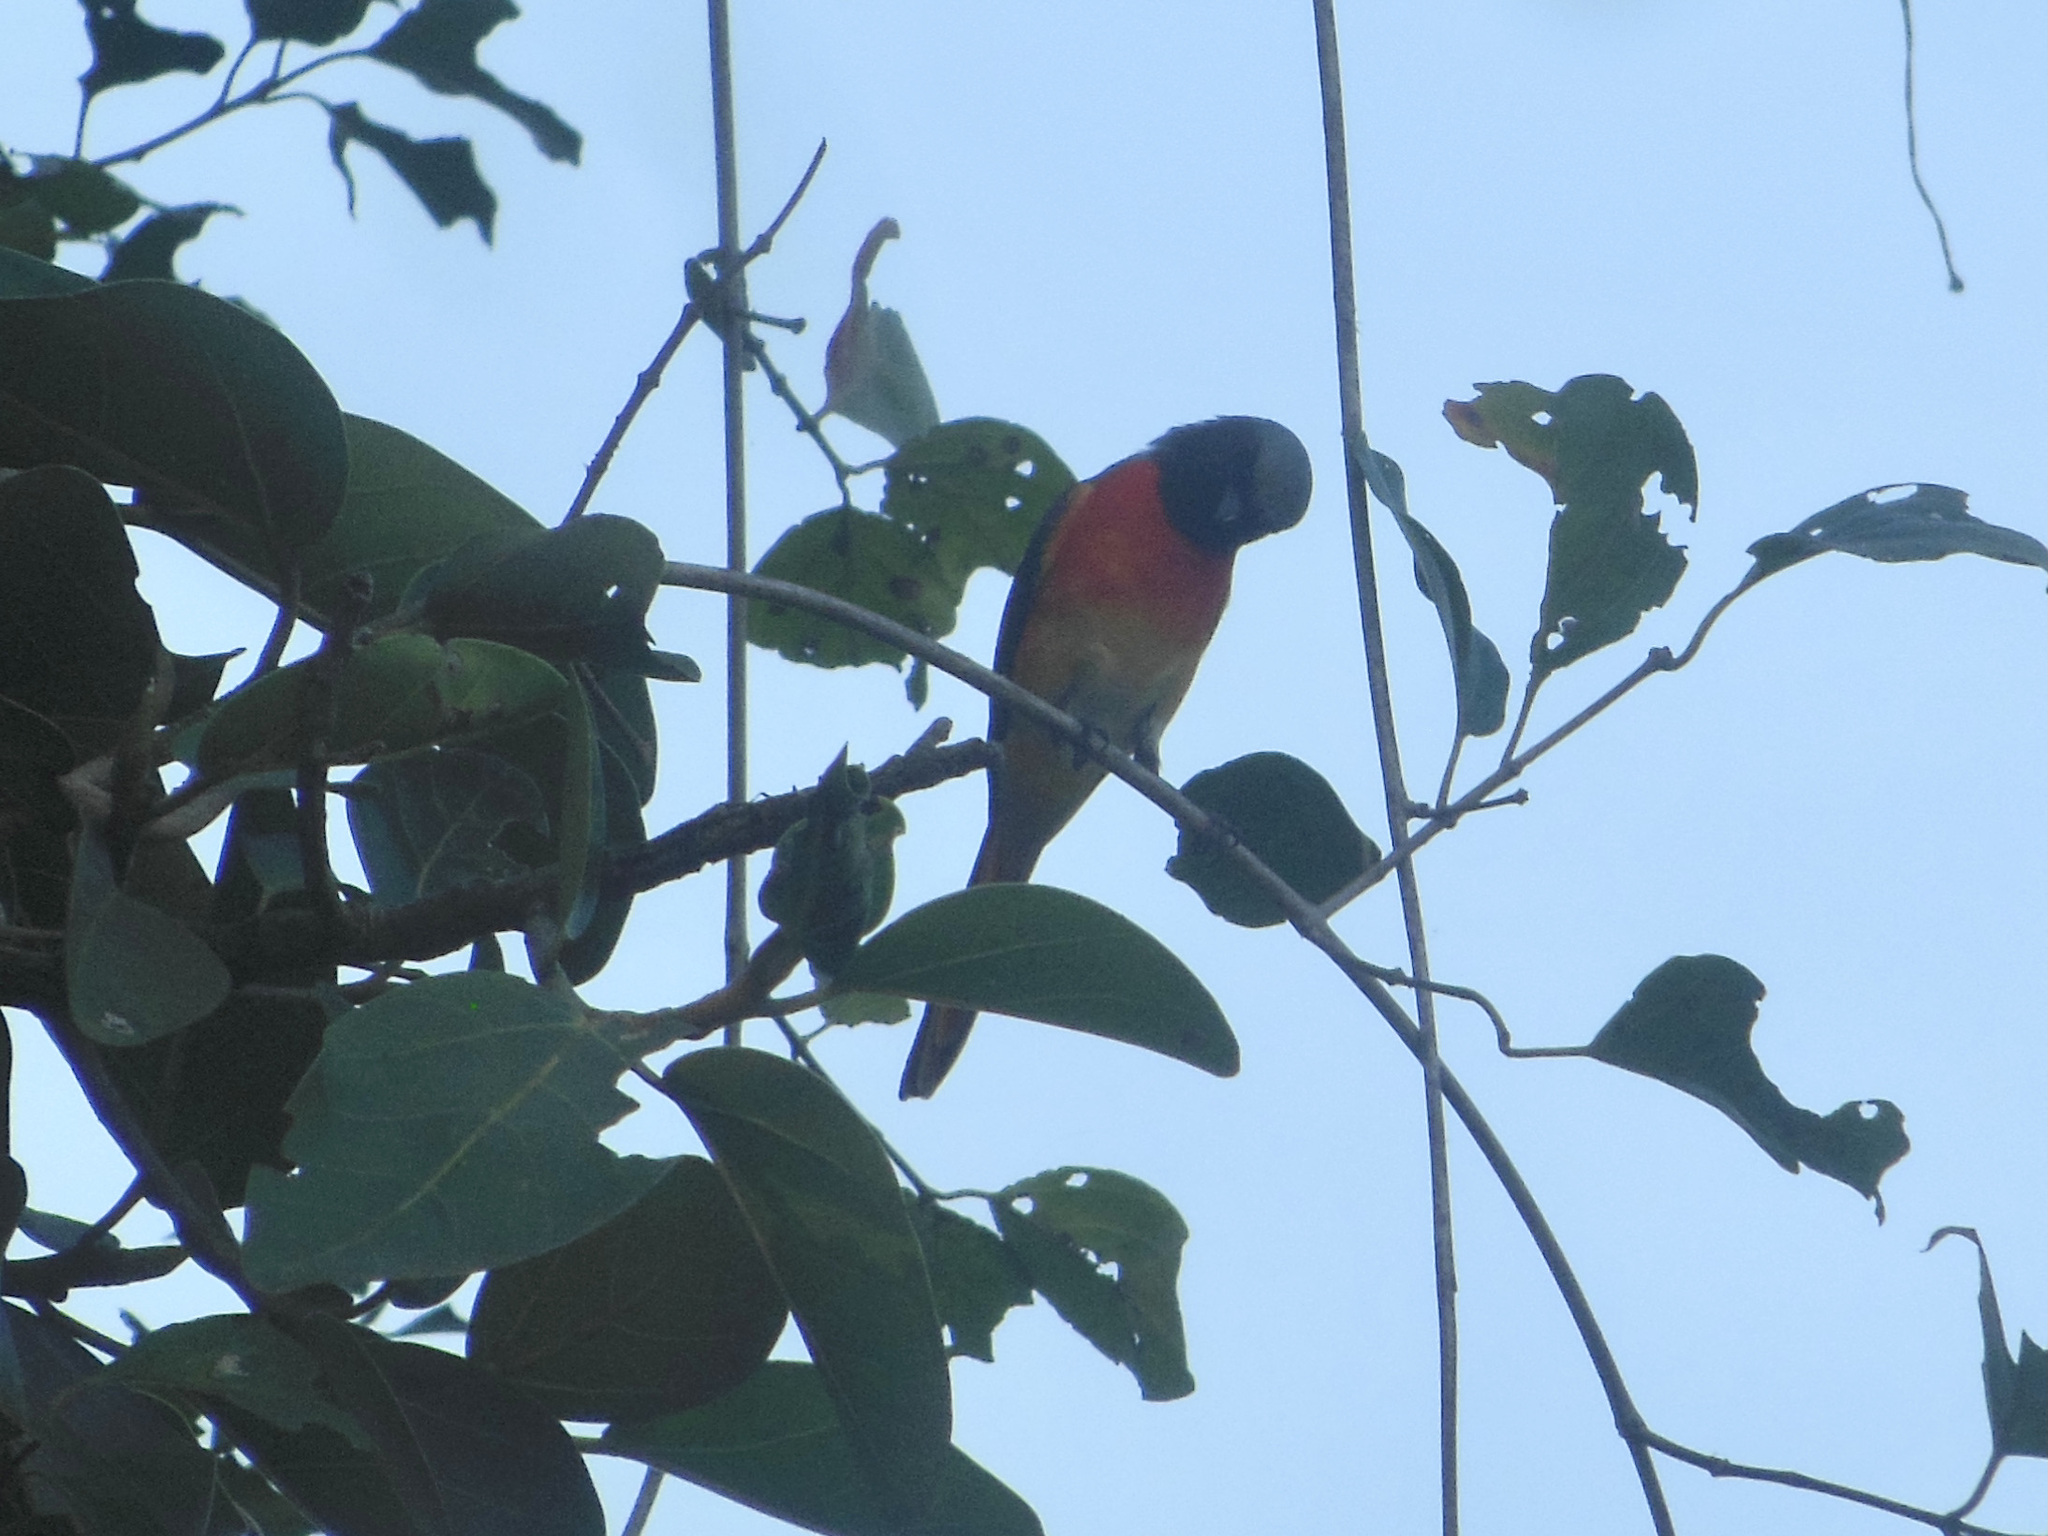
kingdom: Animalia
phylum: Chordata
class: Aves
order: Passeriformes
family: Campephagidae
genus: Pericrocotus
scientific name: Pericrocotus cinnamomeus
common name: Small minivet
